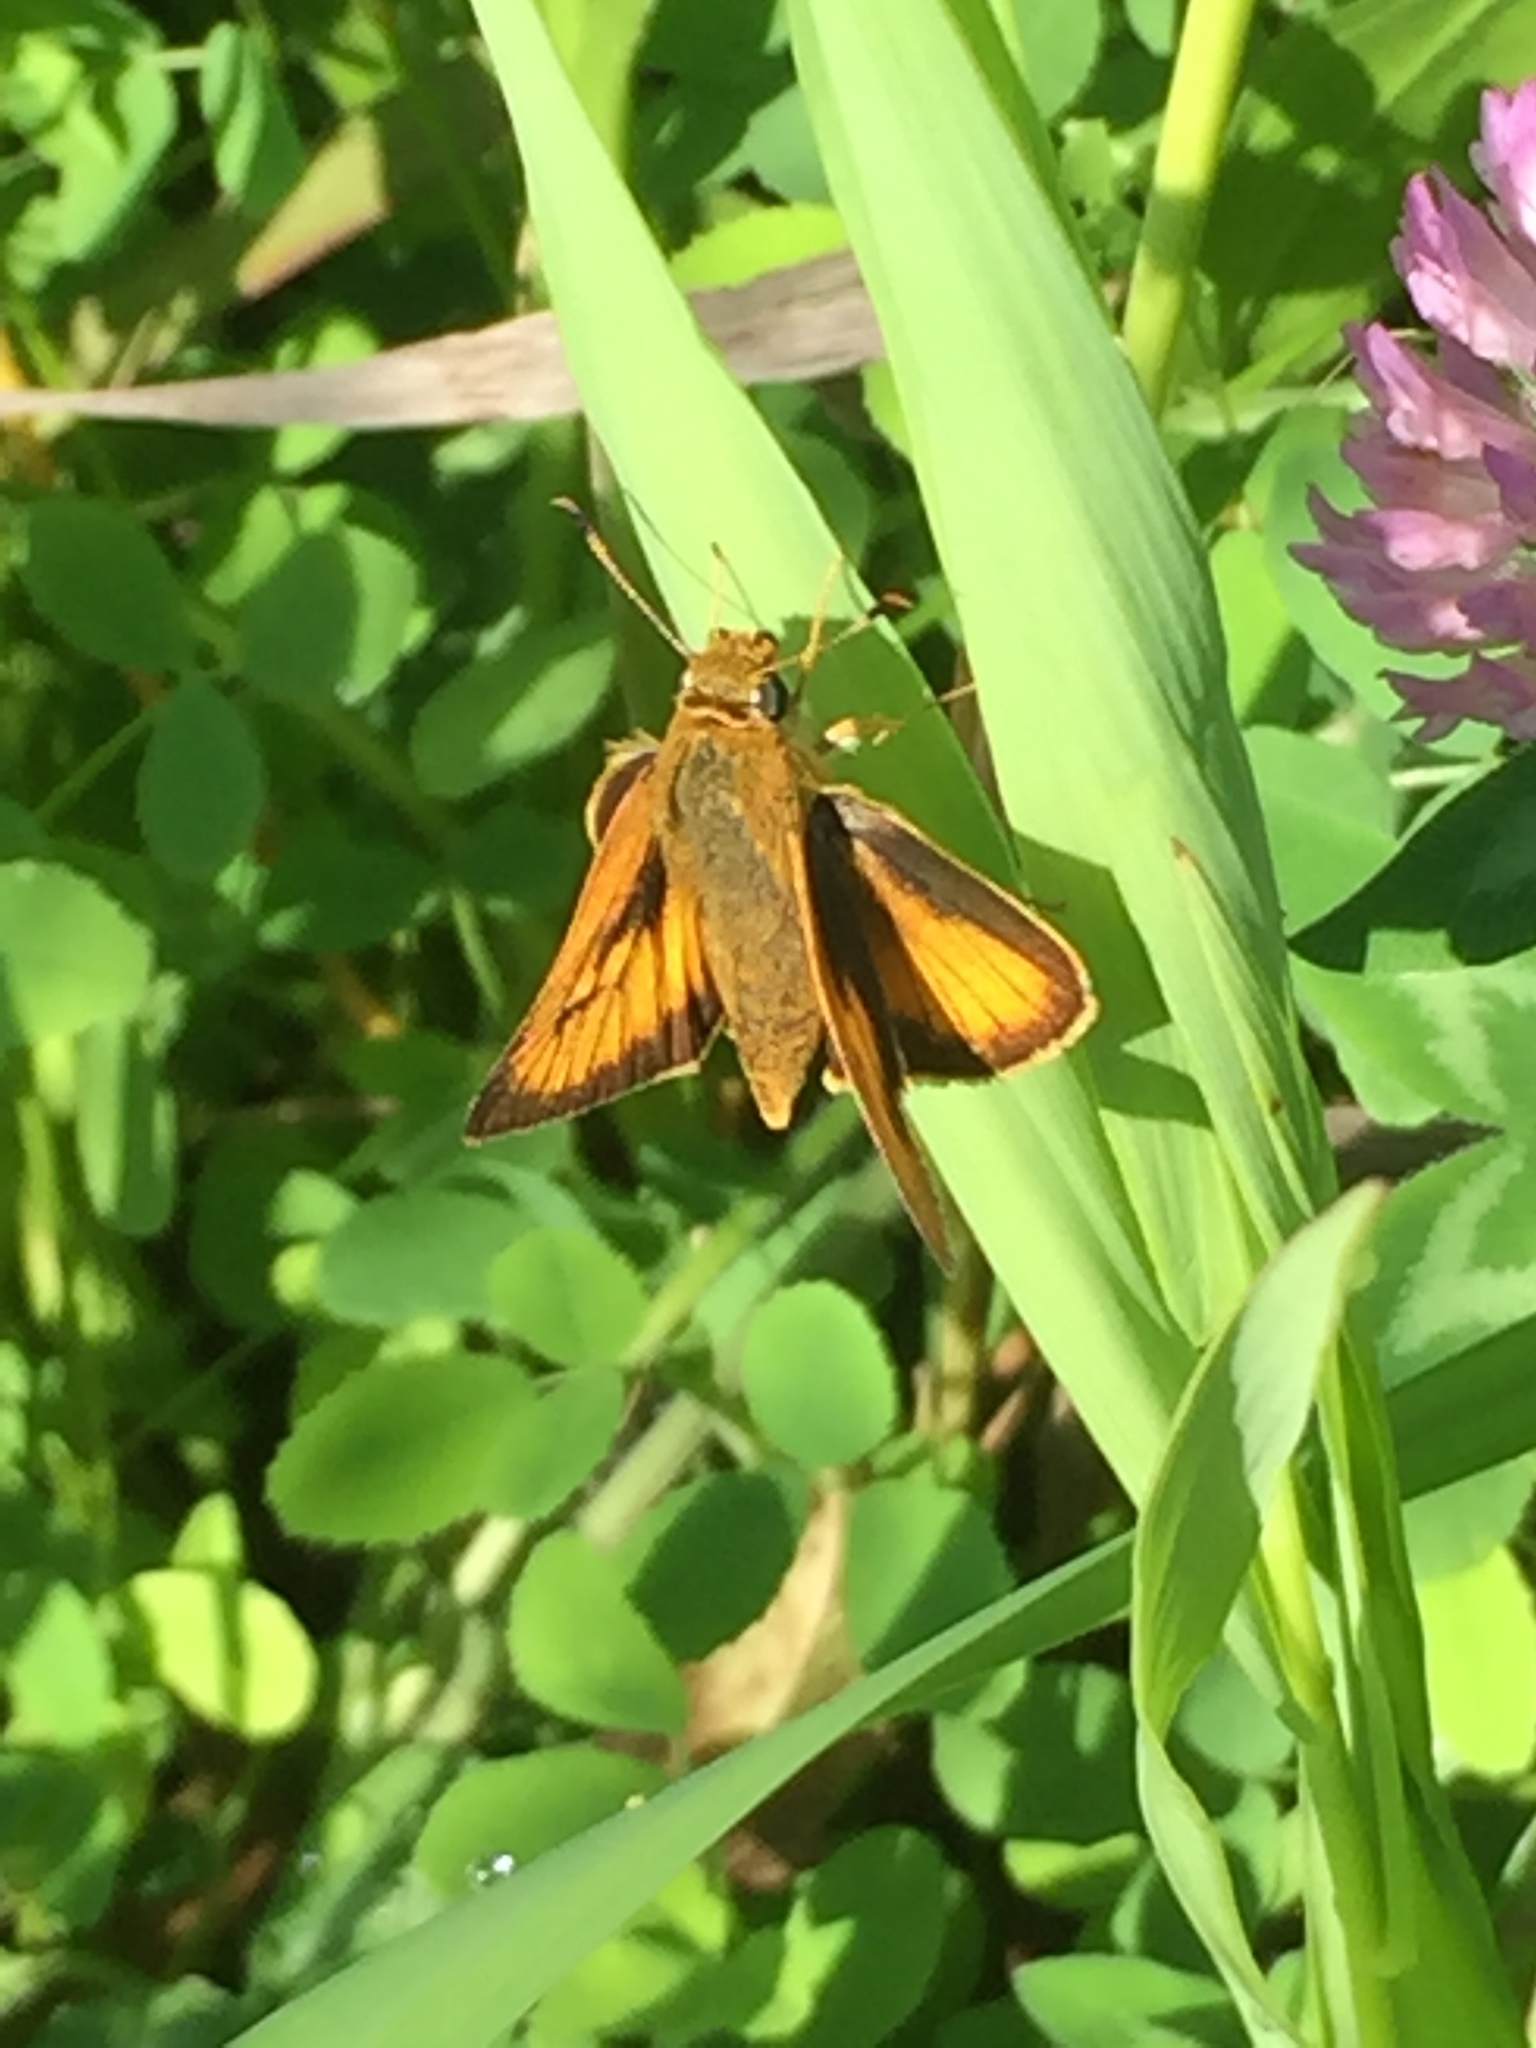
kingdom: Animalia
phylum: Arthropoda
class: Insecta
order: Lepidoptera
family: Hesperiidae
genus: Atrytone
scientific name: Atrytone delaware
